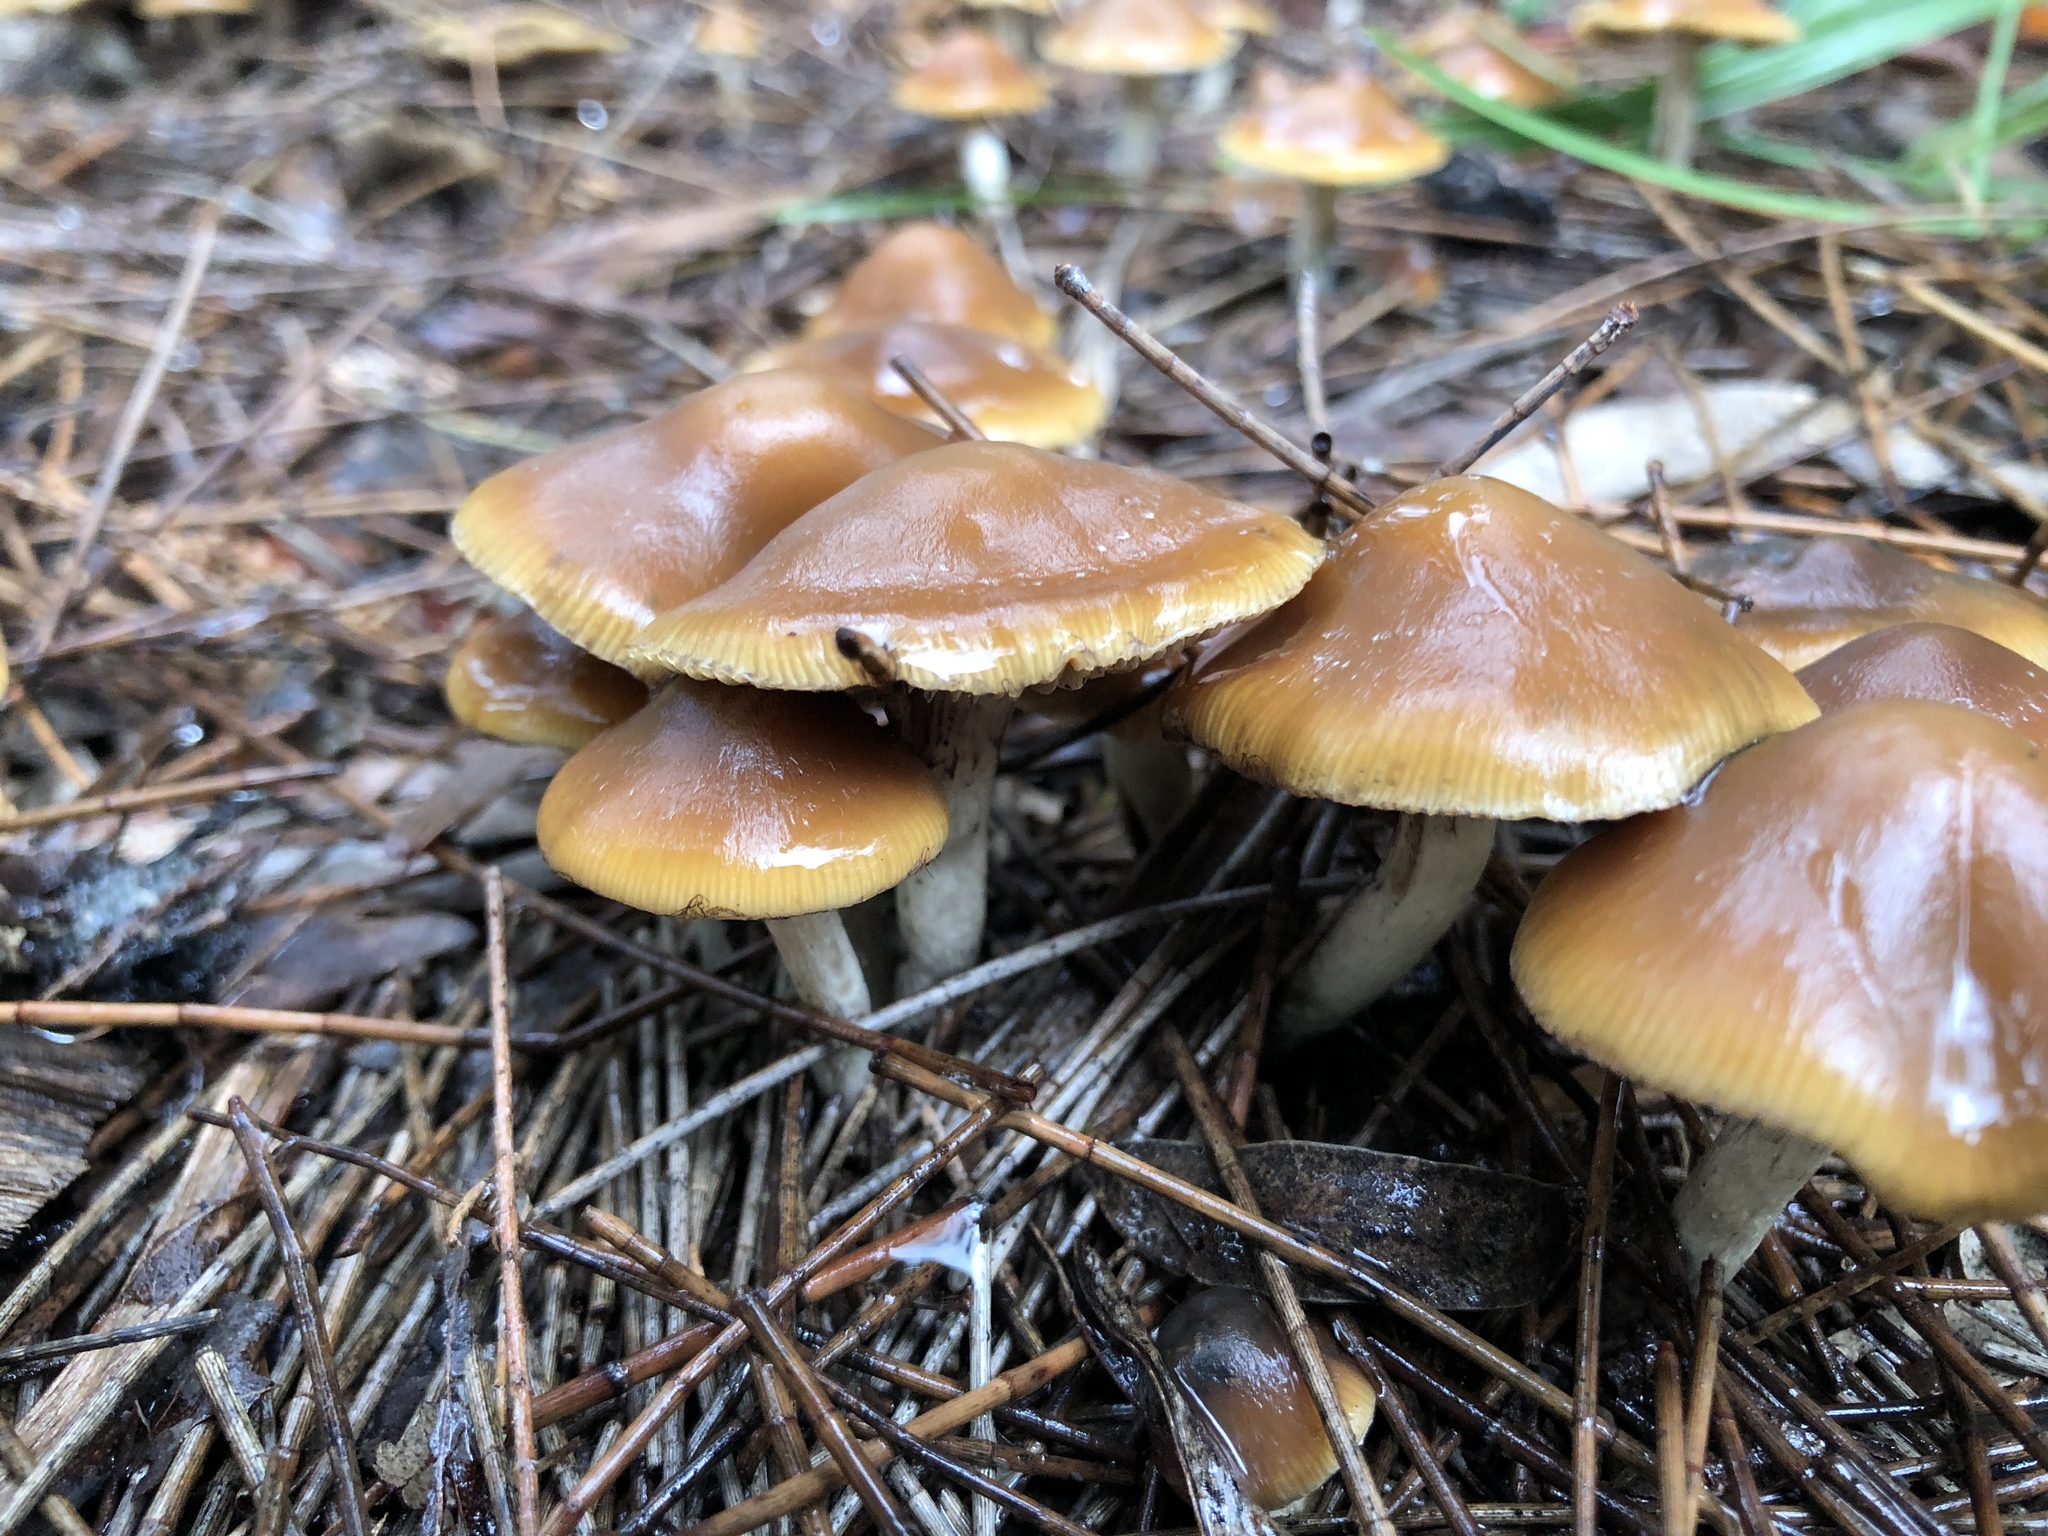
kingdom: Fungi
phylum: Basidiomycota
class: Agaricomycetes
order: Agaricales
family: Hymenogastraceae
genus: Psilocybe
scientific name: Psilocybe subaeruginosa
